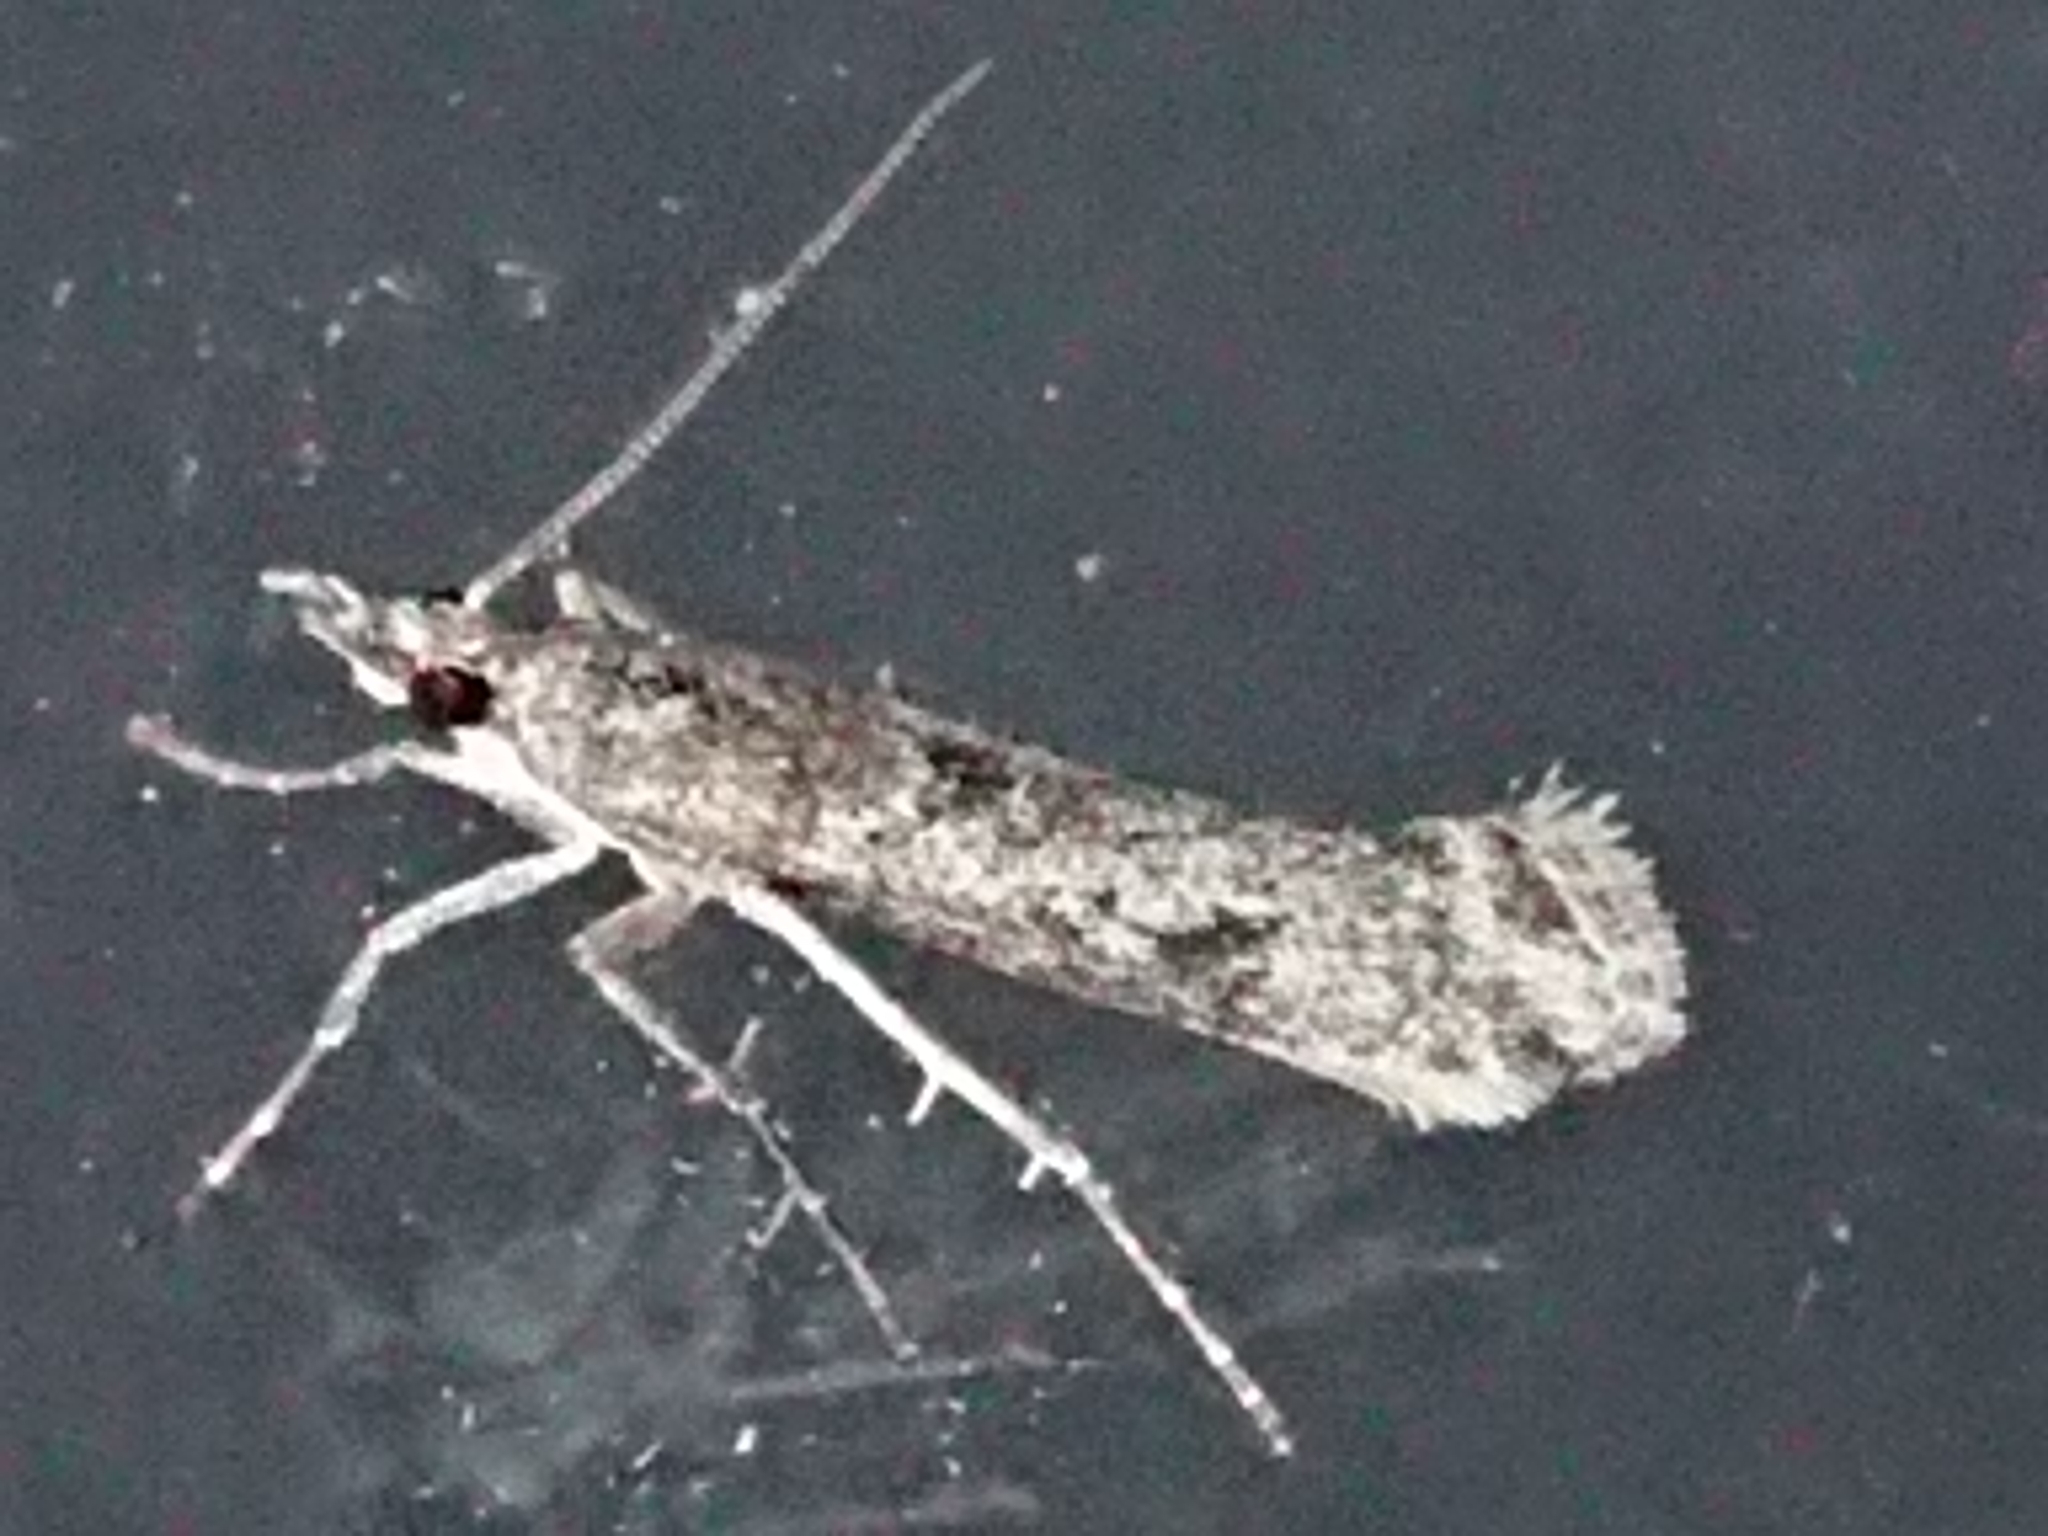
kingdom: Animalia
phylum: Arthropoda
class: Insecta
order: Lepidoptera
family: Crambidae
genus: Eudonia
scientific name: Eudonia leptalea
